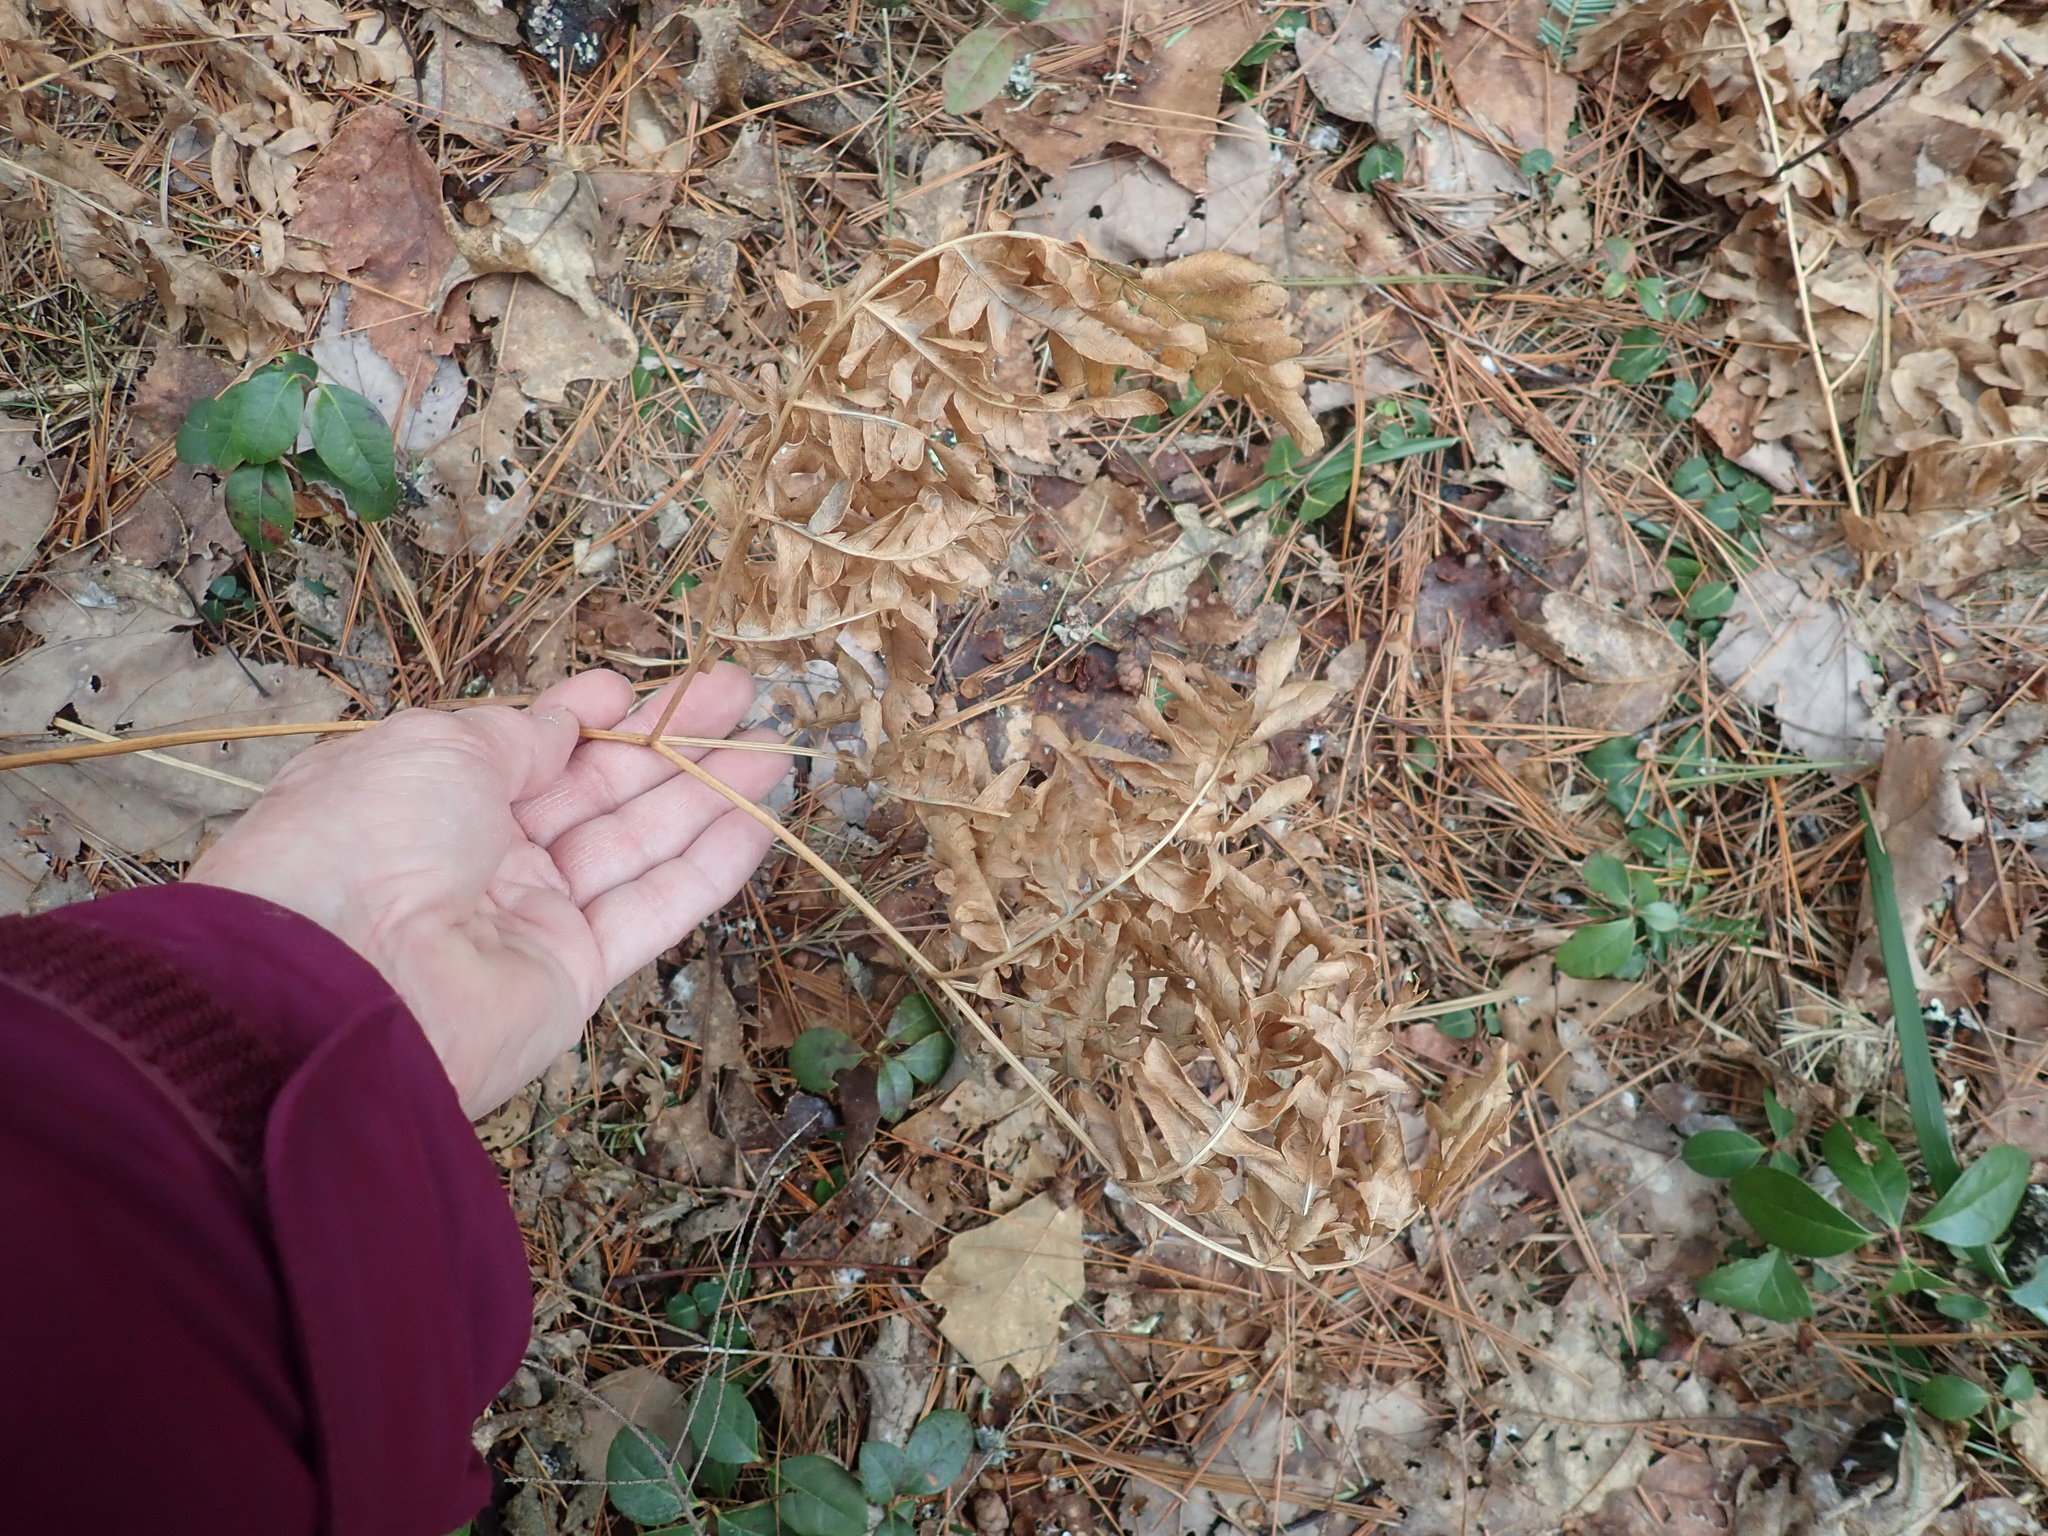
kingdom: Plantae
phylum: Tracheophyta
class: Polypodiopsida
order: Polypodiales
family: Dennstaedtiaceae
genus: Pteridium
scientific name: Pteridium aquilinum
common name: Bracken
